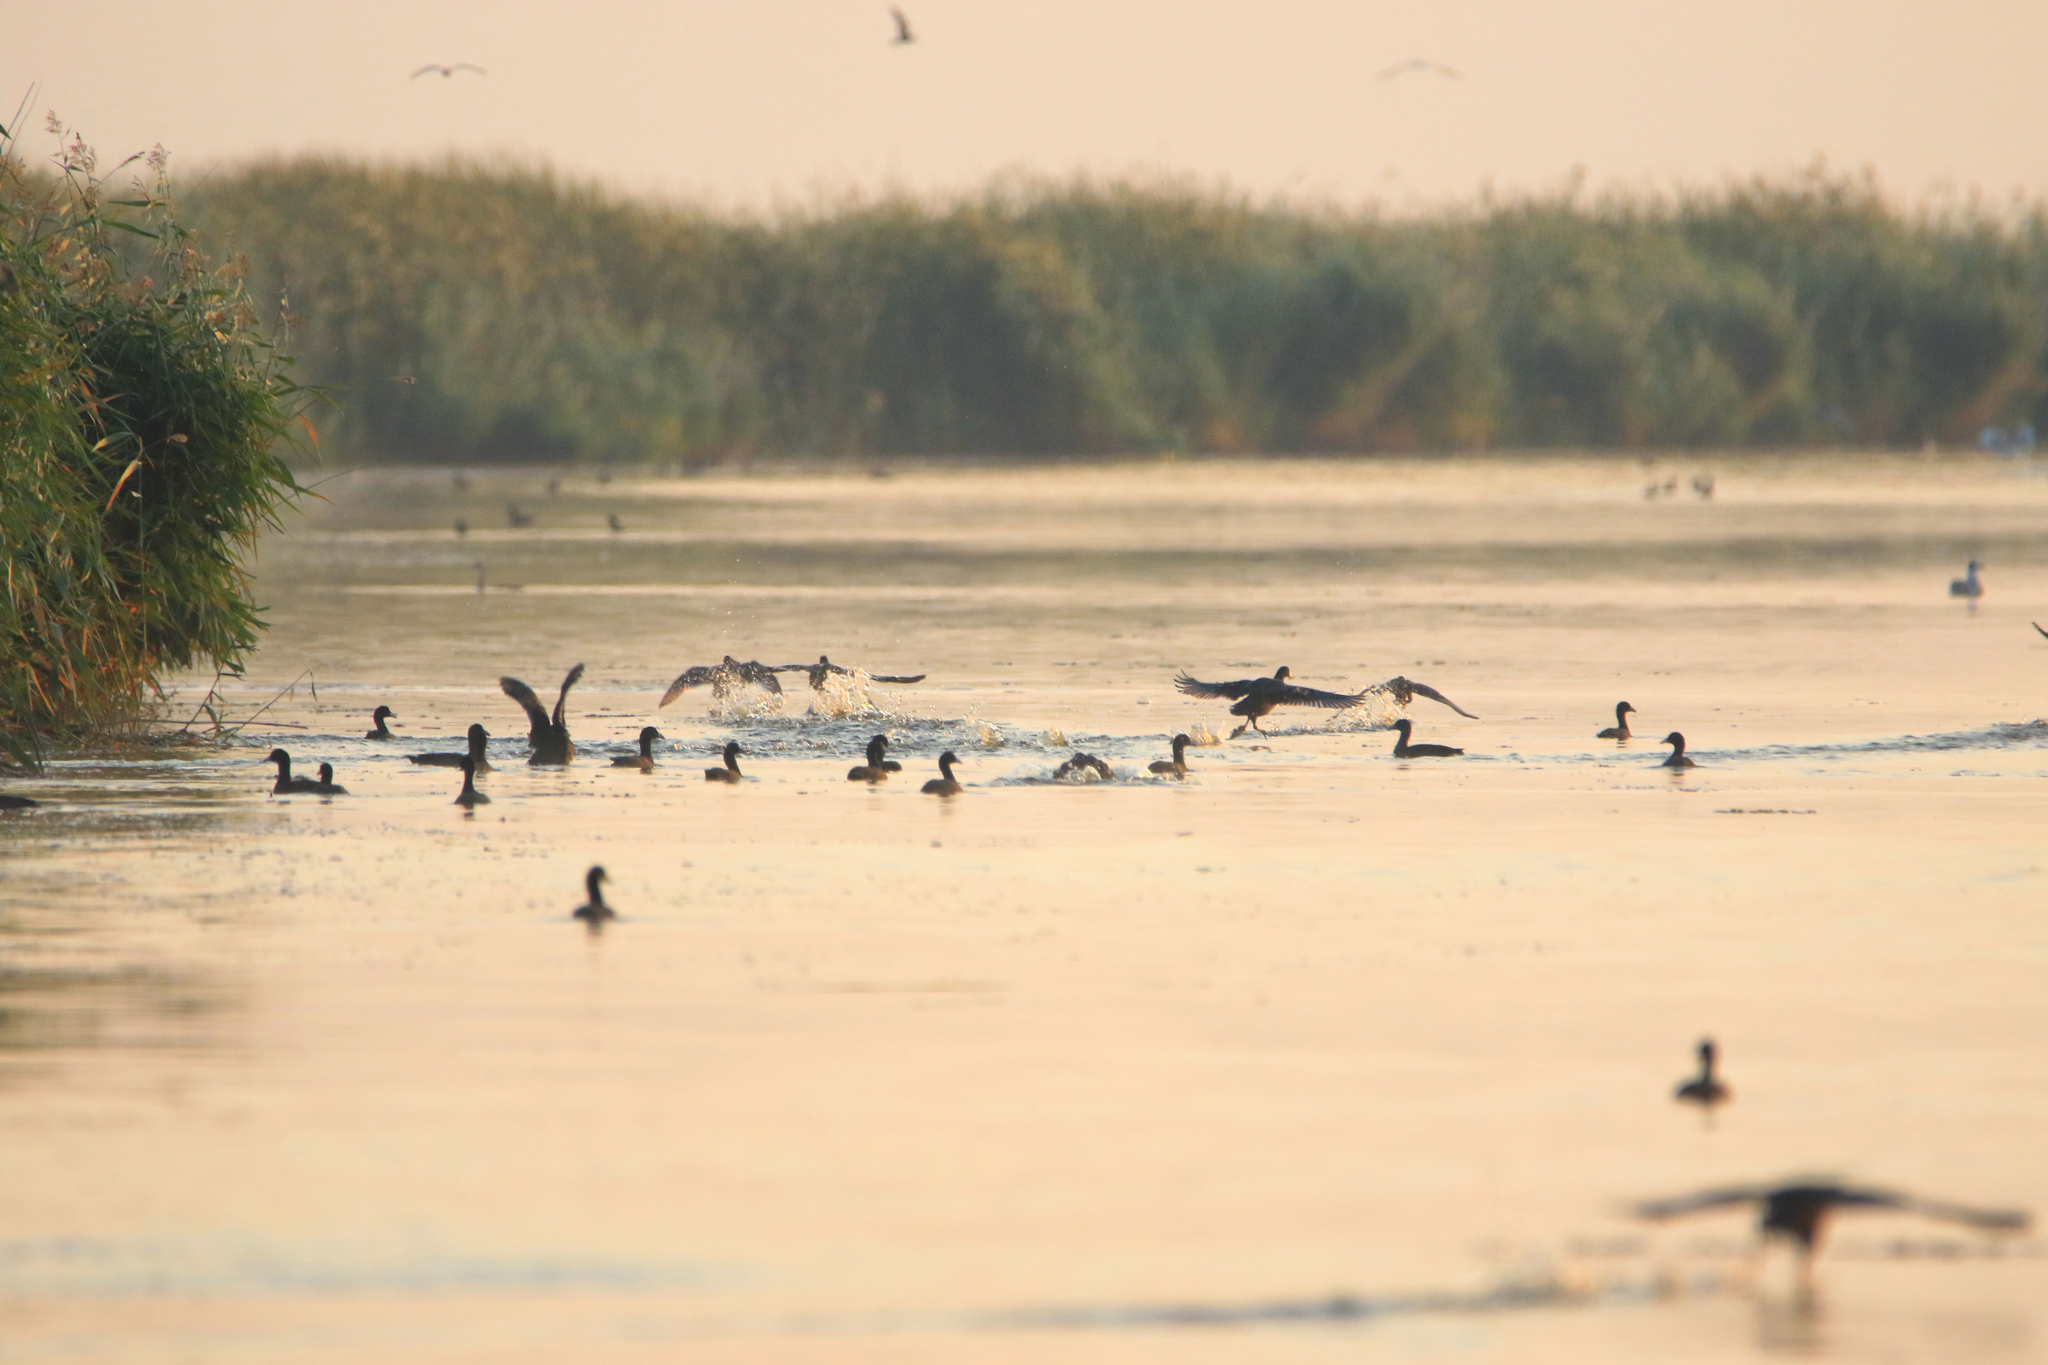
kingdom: Animalia
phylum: Chordata
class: Aves
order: Gruiformes
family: Rallidae
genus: Fulica
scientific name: Fulica atra
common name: Eurasian coot
